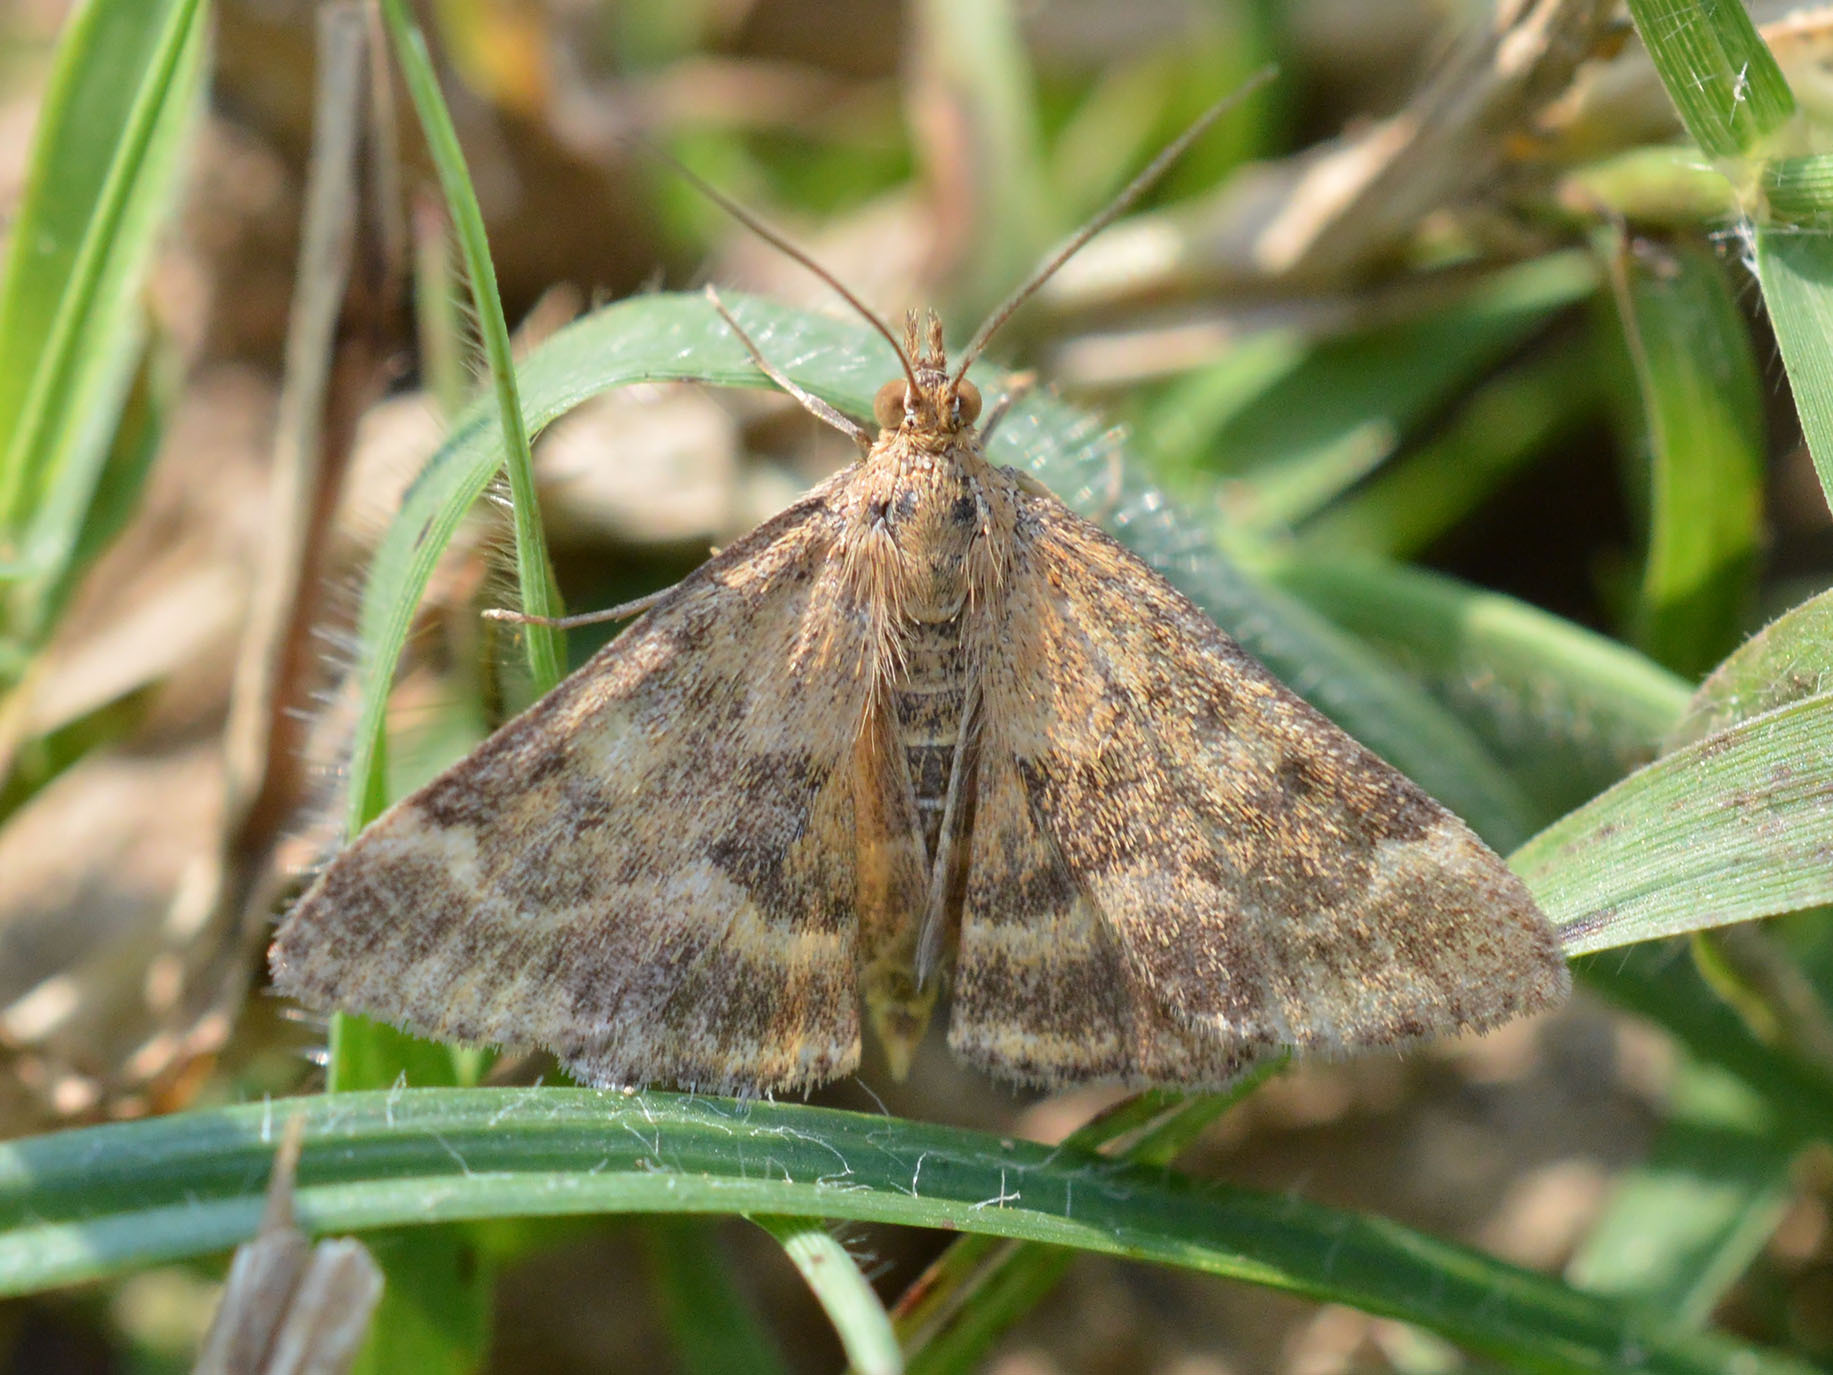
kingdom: Animalia
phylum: Arthropoda
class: Insecta
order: Lepidoptera
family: Crambidae
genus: Pyrausta
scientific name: Pyrausta despicata
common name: Straw-barred pearl
